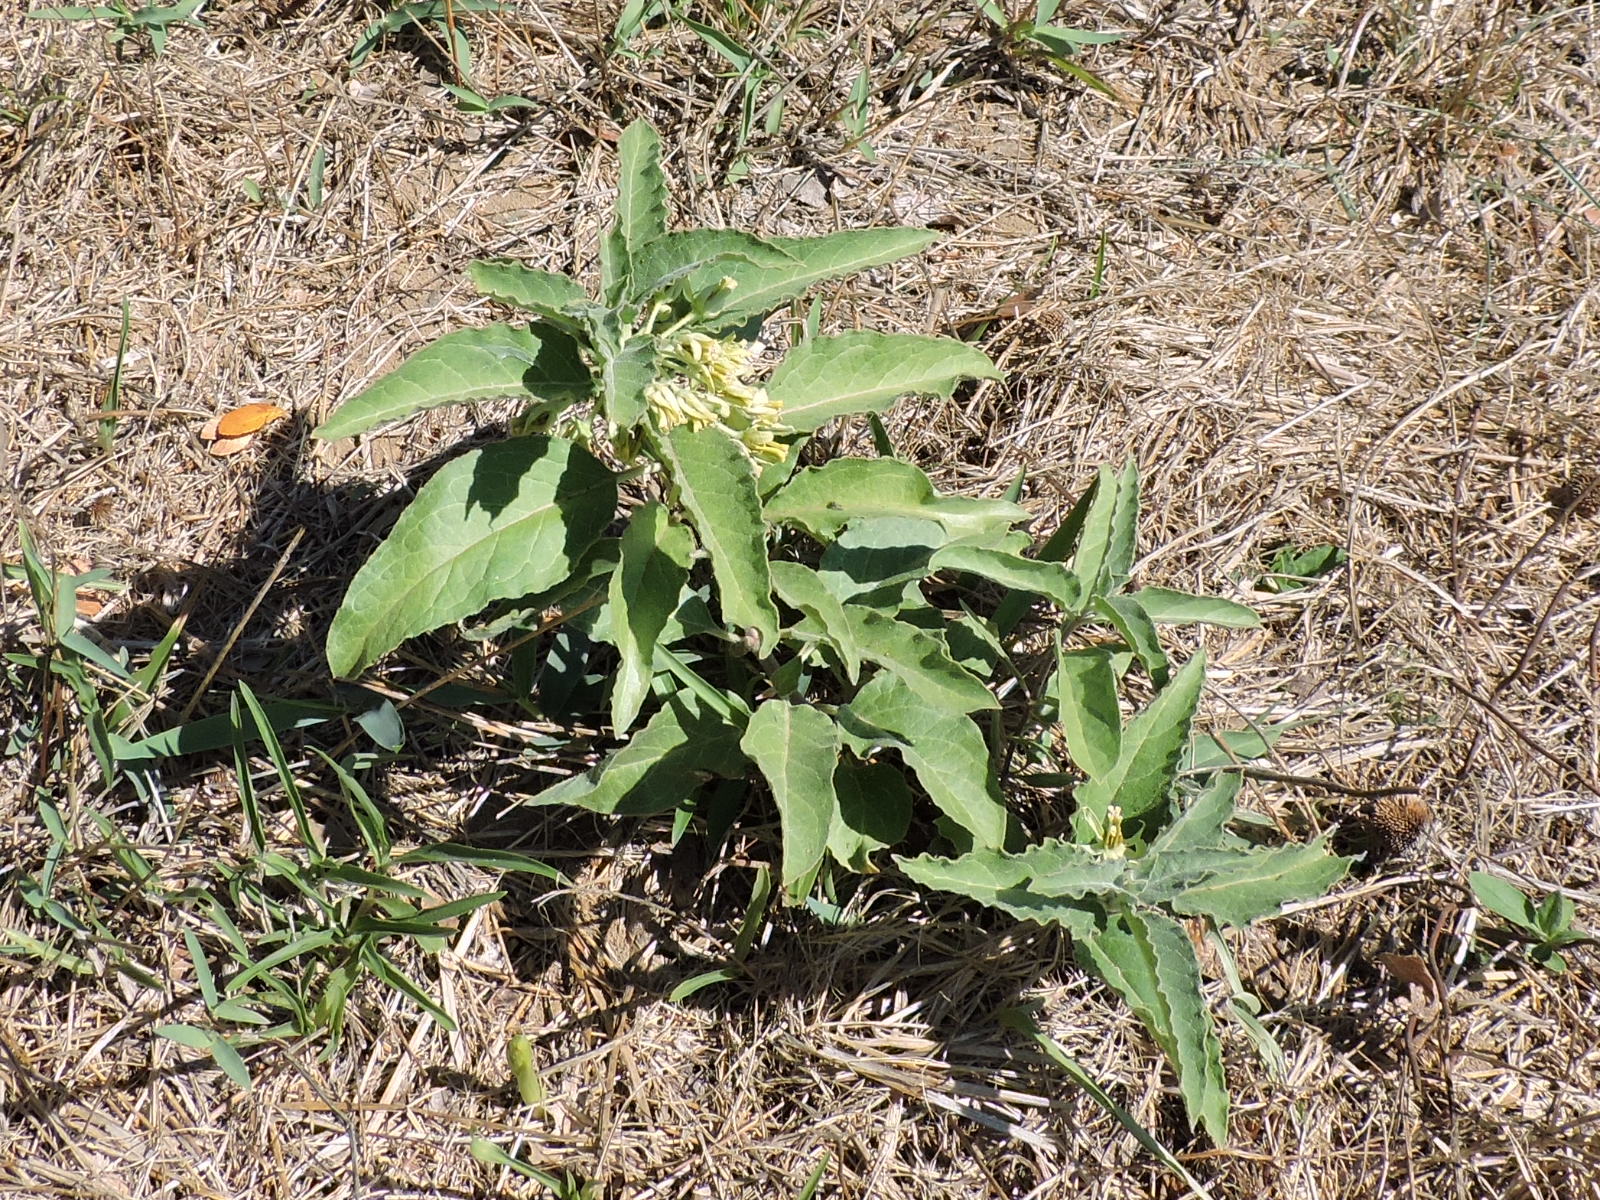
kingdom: Plantae
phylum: Tracheophyta
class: Magnoliopsida
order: Gentianales
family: Apocynaceae
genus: Asclepias
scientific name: Asclepias oenotheroides
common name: Zizotes milkweed
